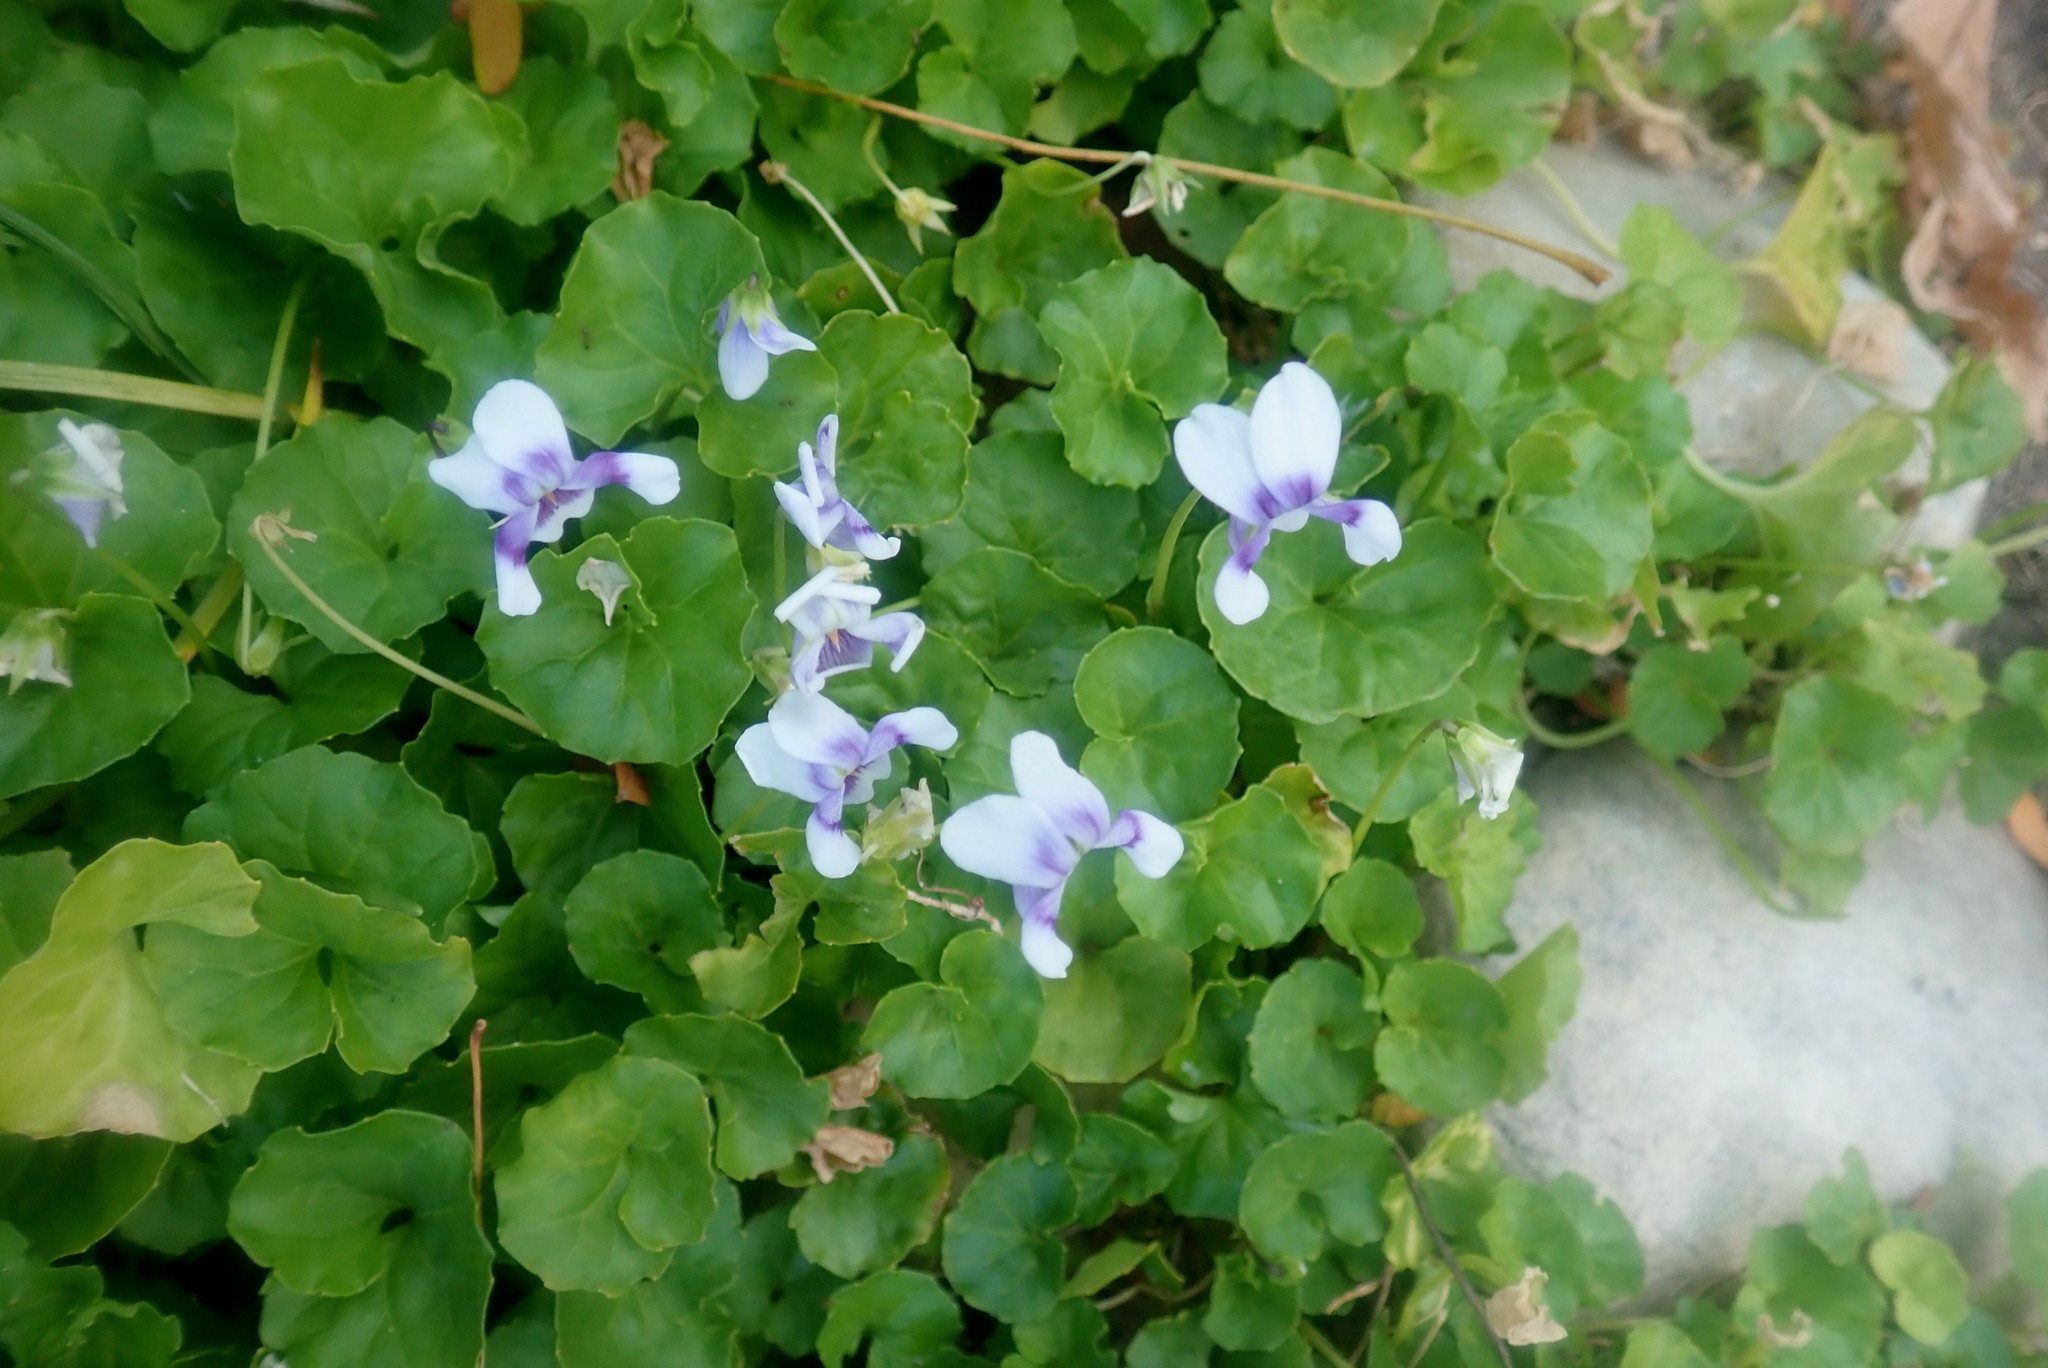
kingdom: Plantae
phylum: Tracheophyta
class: Magnoliopsida
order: Malpighiales
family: Violaceae
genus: Viola
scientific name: Viola banksii
